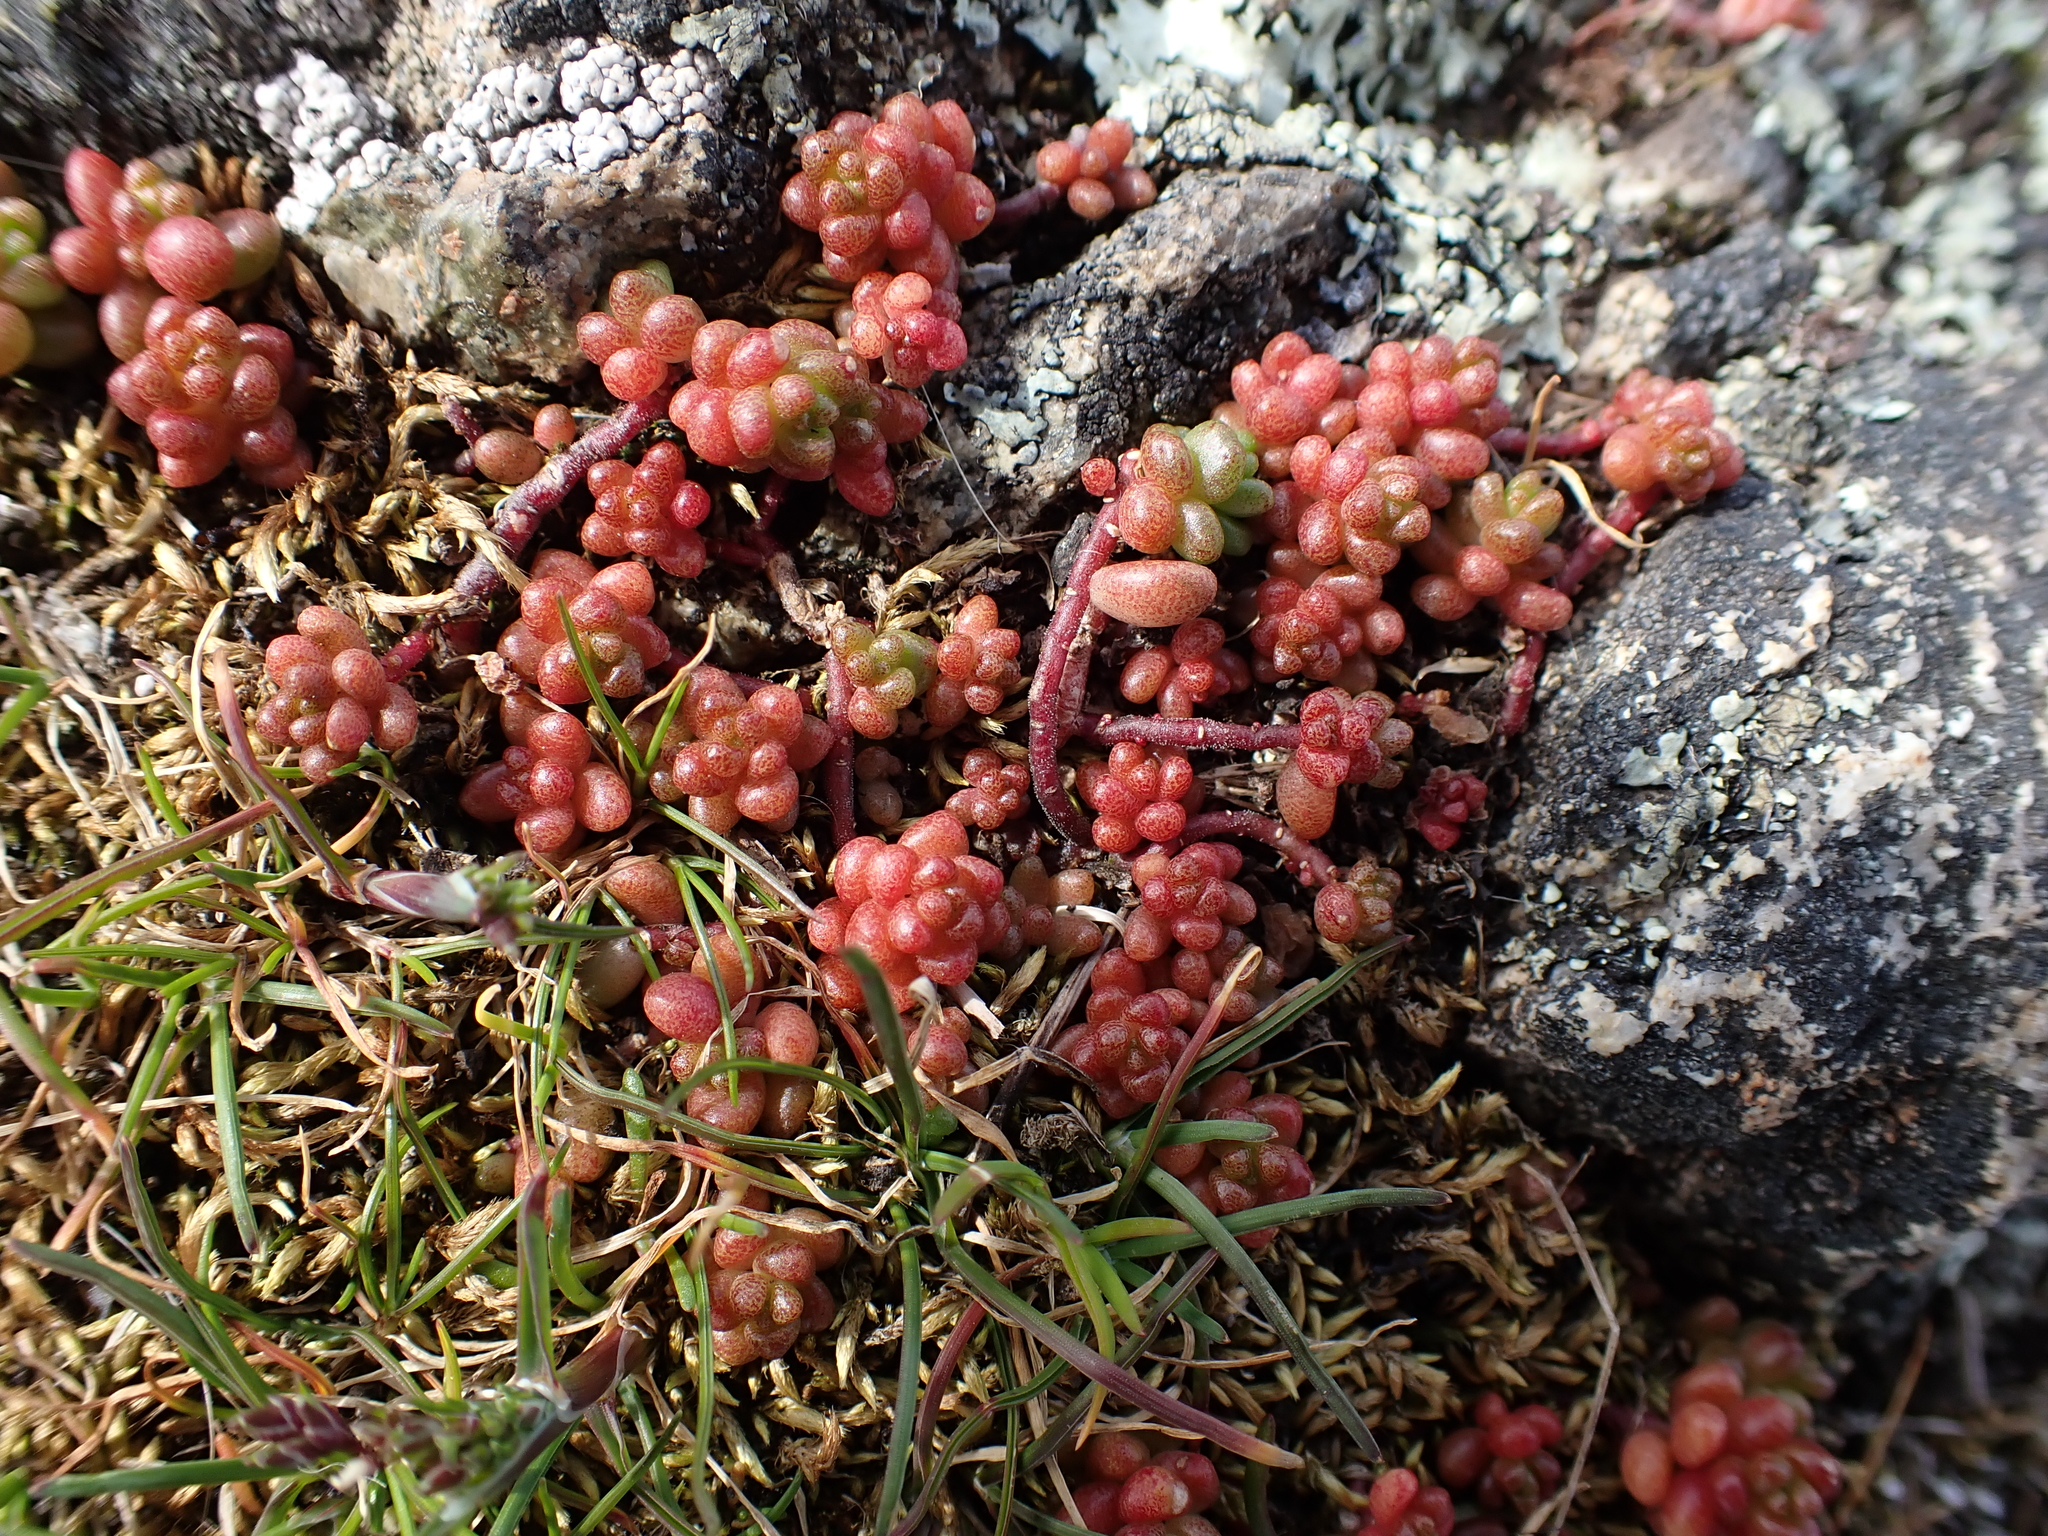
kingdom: Plantae
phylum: Tracheophyta
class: Magnoliopsida
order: Saxifragales
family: Crassulaceae
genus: Sedum
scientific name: Sedum album
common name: White stonecrop
